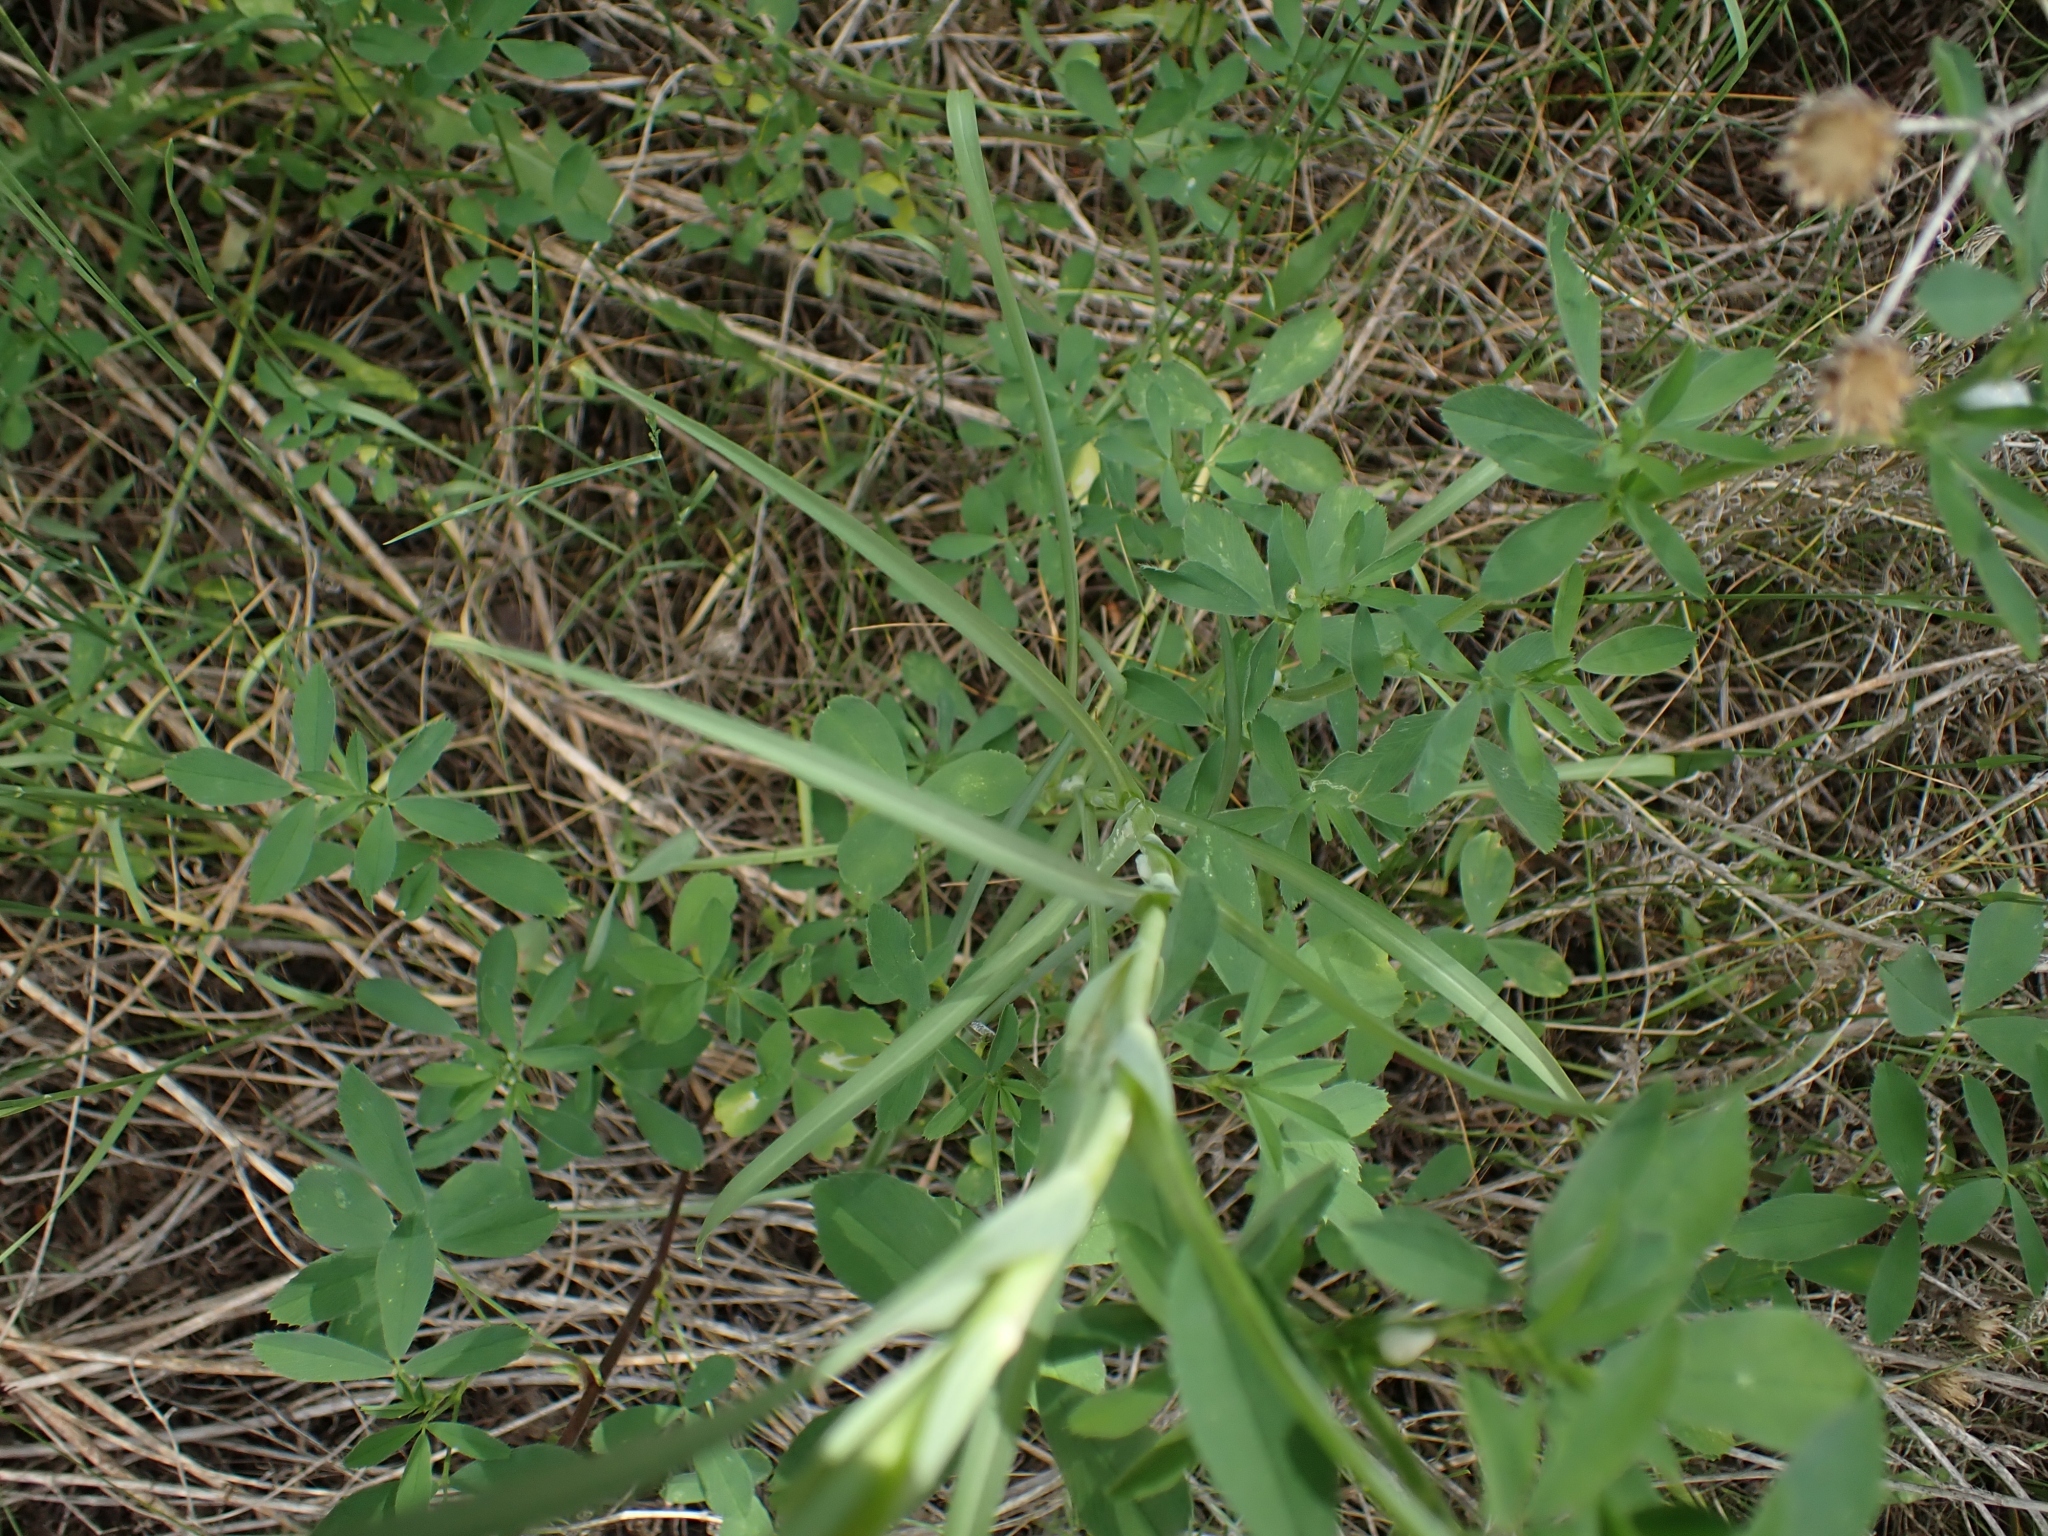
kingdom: Plantae
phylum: Tracheophyta
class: Magnoliopsida
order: Asterales
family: Asteraceae
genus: Tragopogon
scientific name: Tragopogon dubius
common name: Yellow salsify
